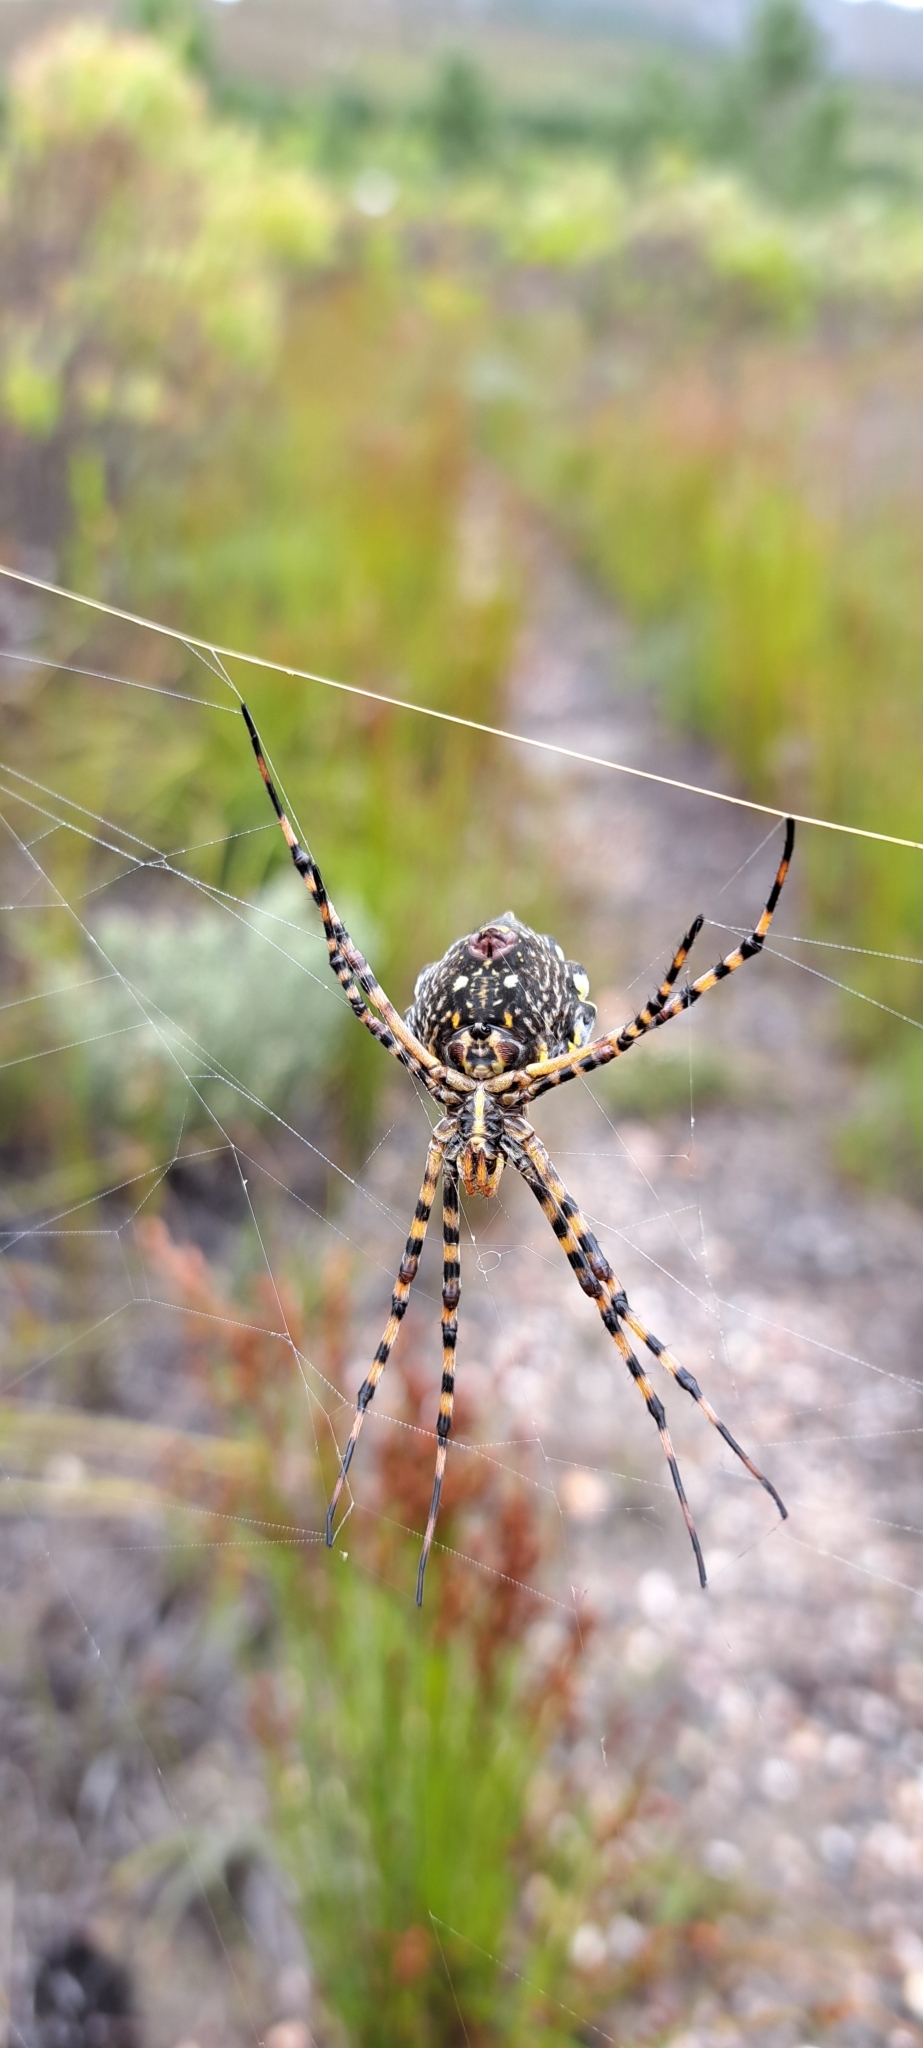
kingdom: Animalia
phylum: Arthropoda
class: Arachnida
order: Araneae
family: Araneidae
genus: Argiope
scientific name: Argiope australis
